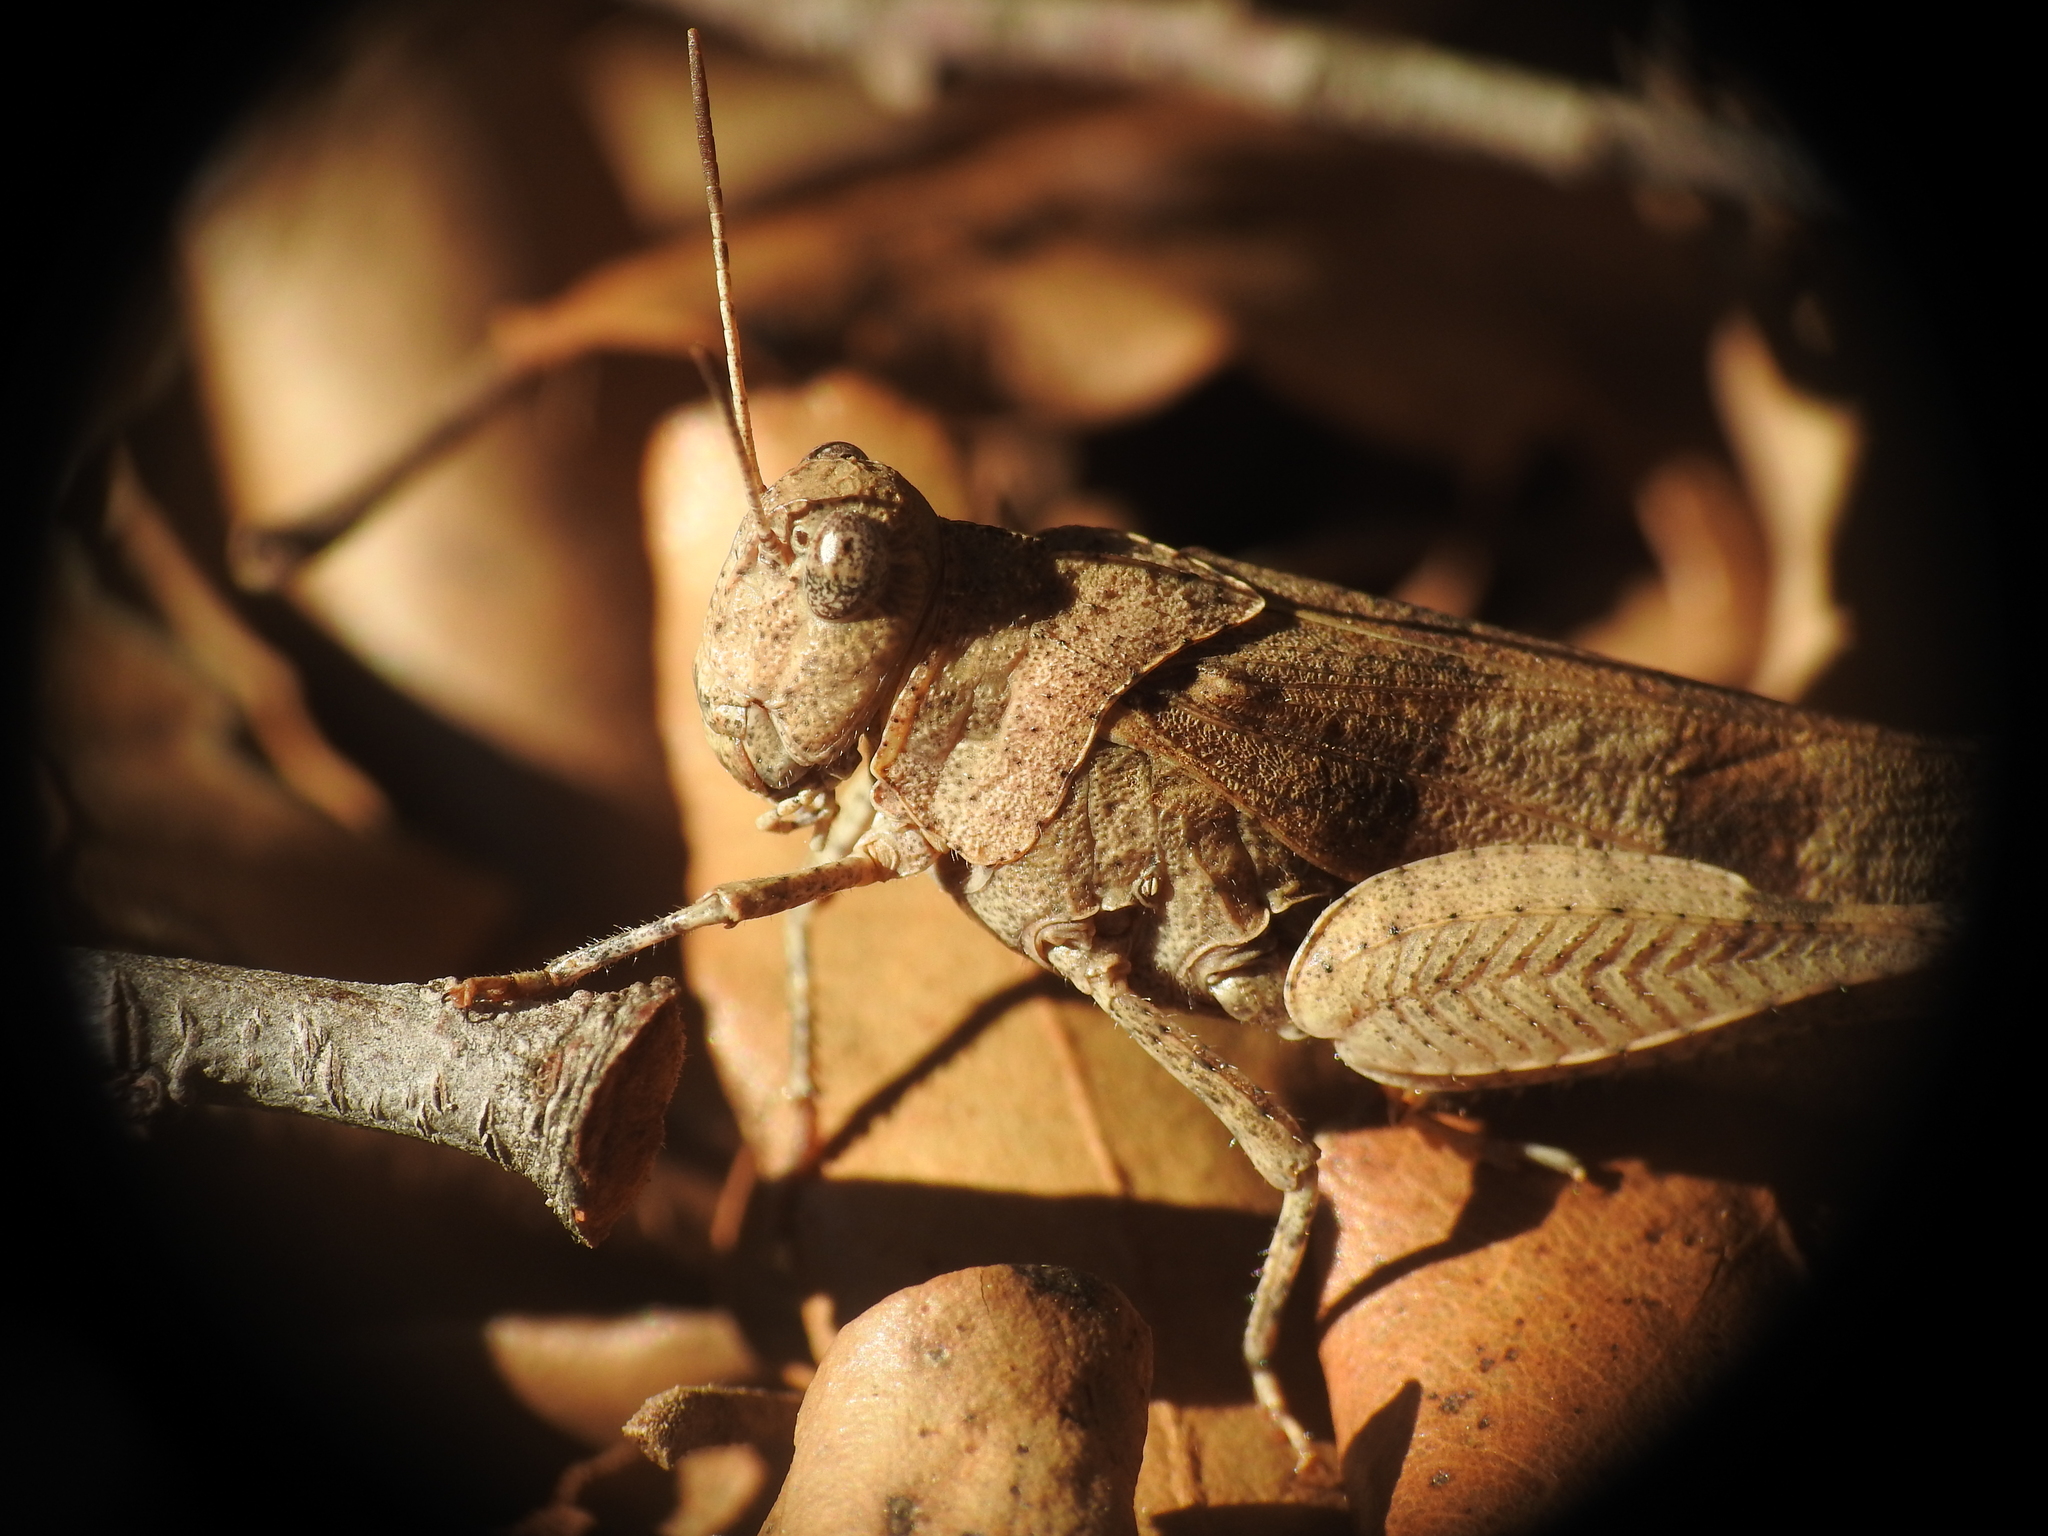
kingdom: Animalia
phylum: Arthropoda
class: Insecta
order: Orthoptera
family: Acrididae
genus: Oedipoda
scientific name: Oedipoda caerulescens
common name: Blue-winged grasshopper
